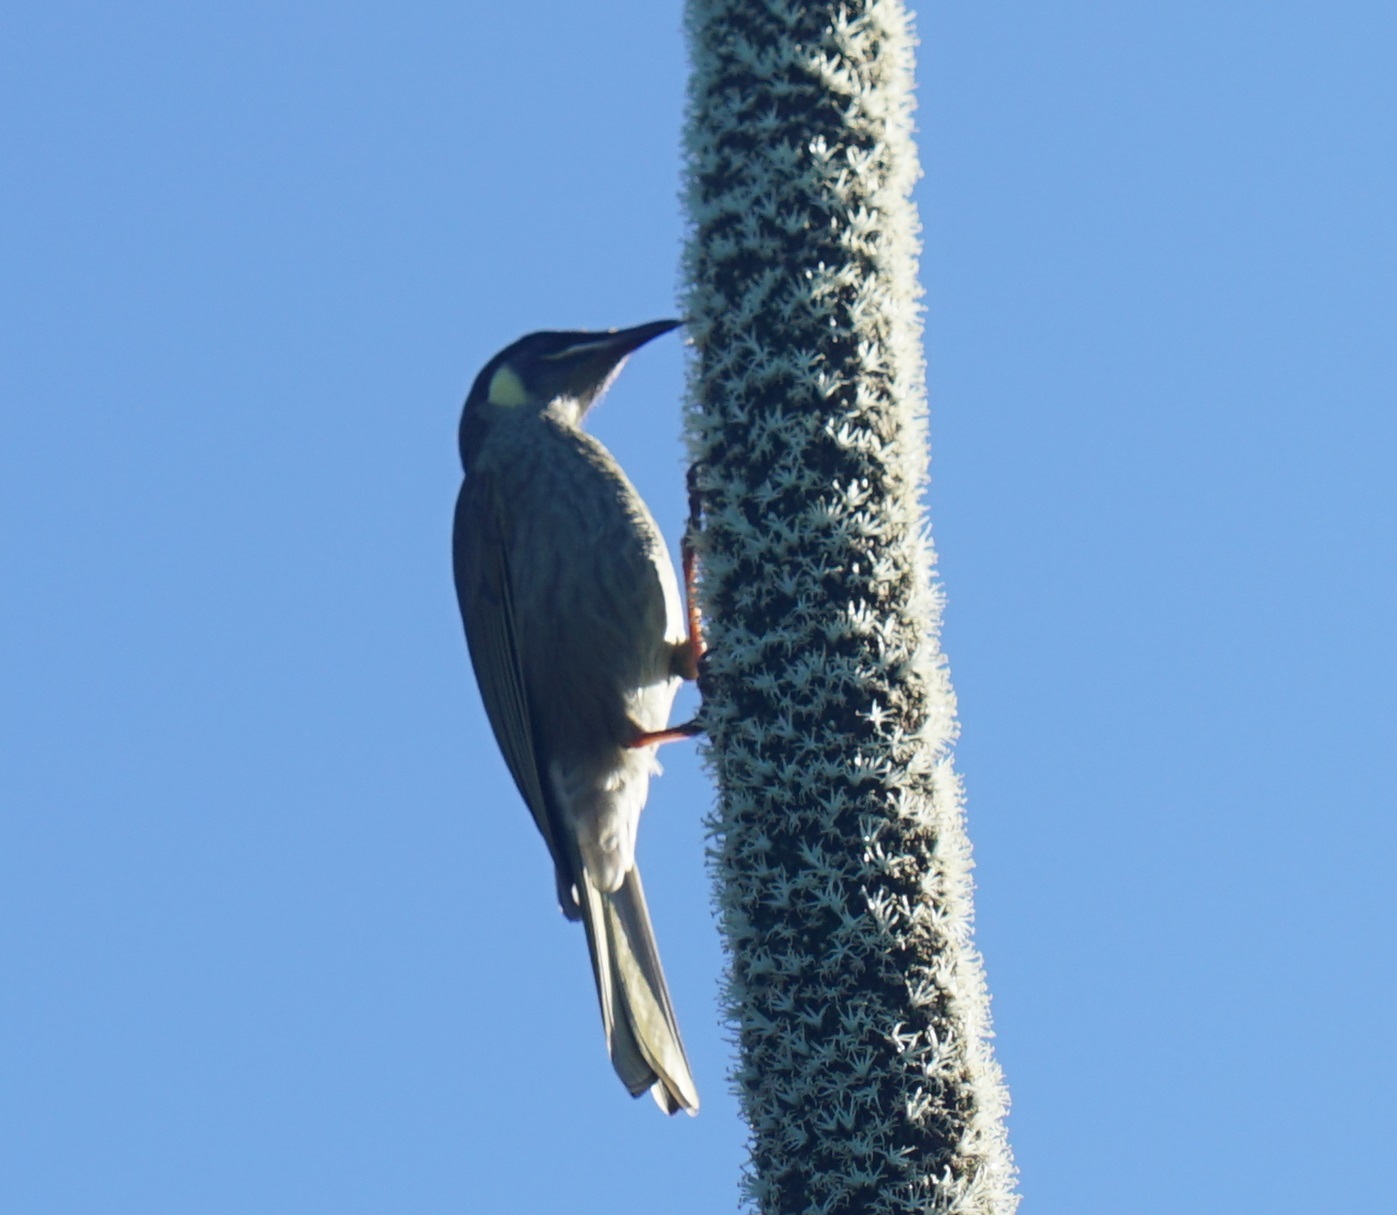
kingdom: Animalia
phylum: Chordata
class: Aves
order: Passeriformes
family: Meliphagidae
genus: Meliphaga
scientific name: Meliphaga lewinii
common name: Lewin's honeyeater
